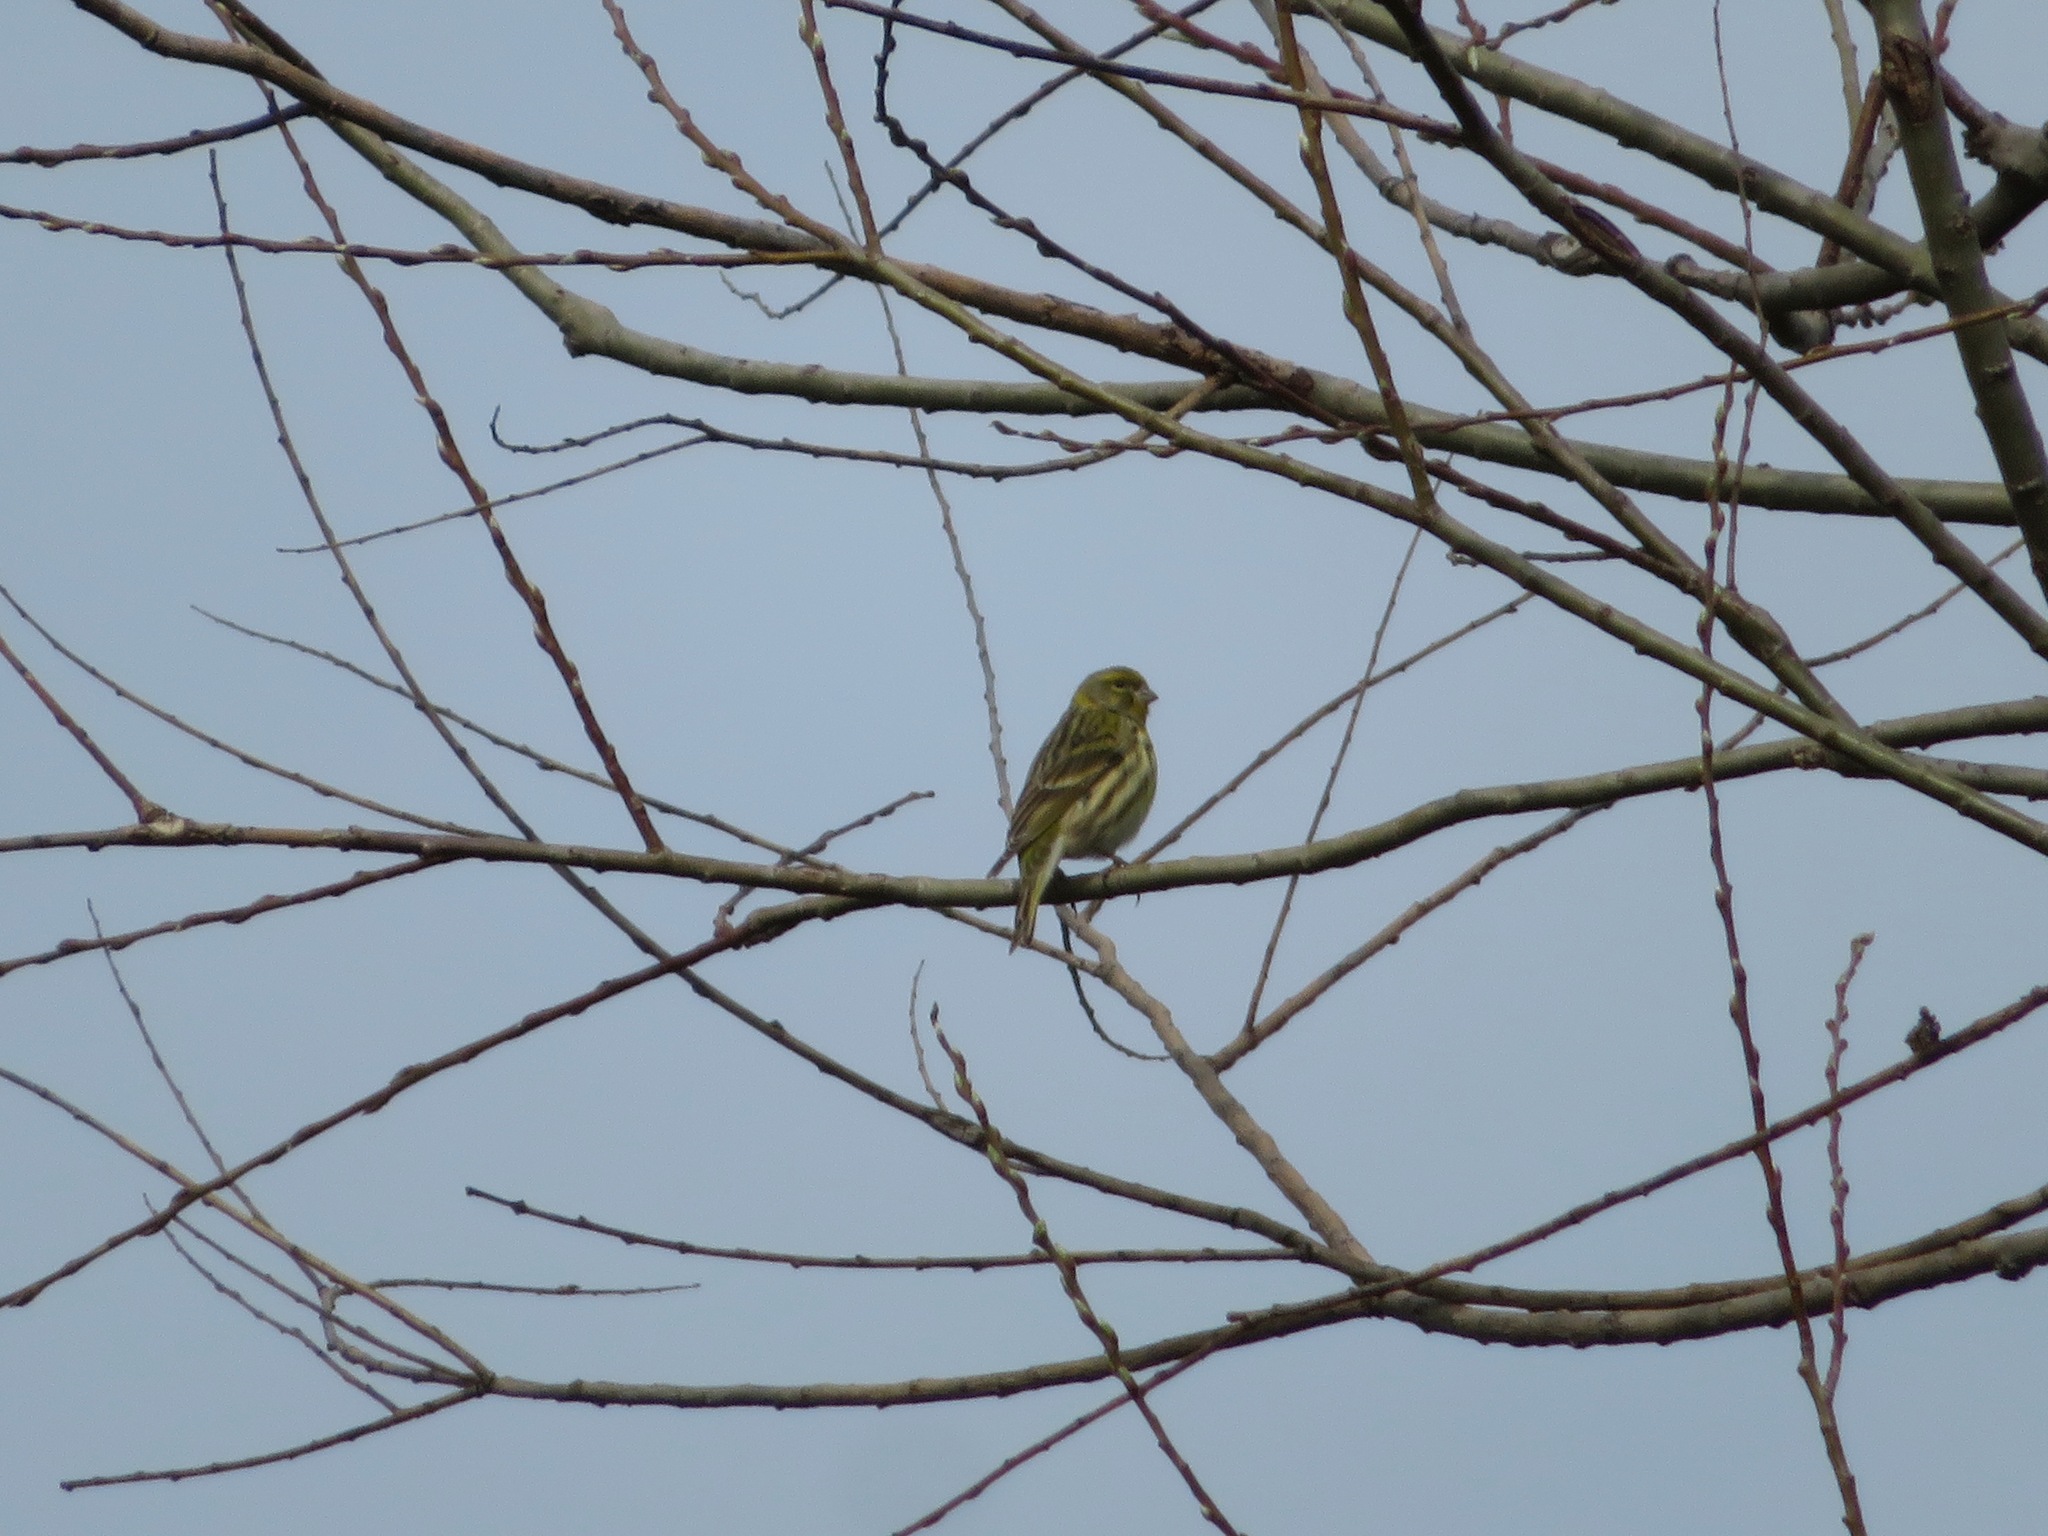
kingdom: Animalia
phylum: Chordata
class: Aves
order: Passeriformes
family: Fringillidae
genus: Serinus
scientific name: Serinus serinus
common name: European serin
